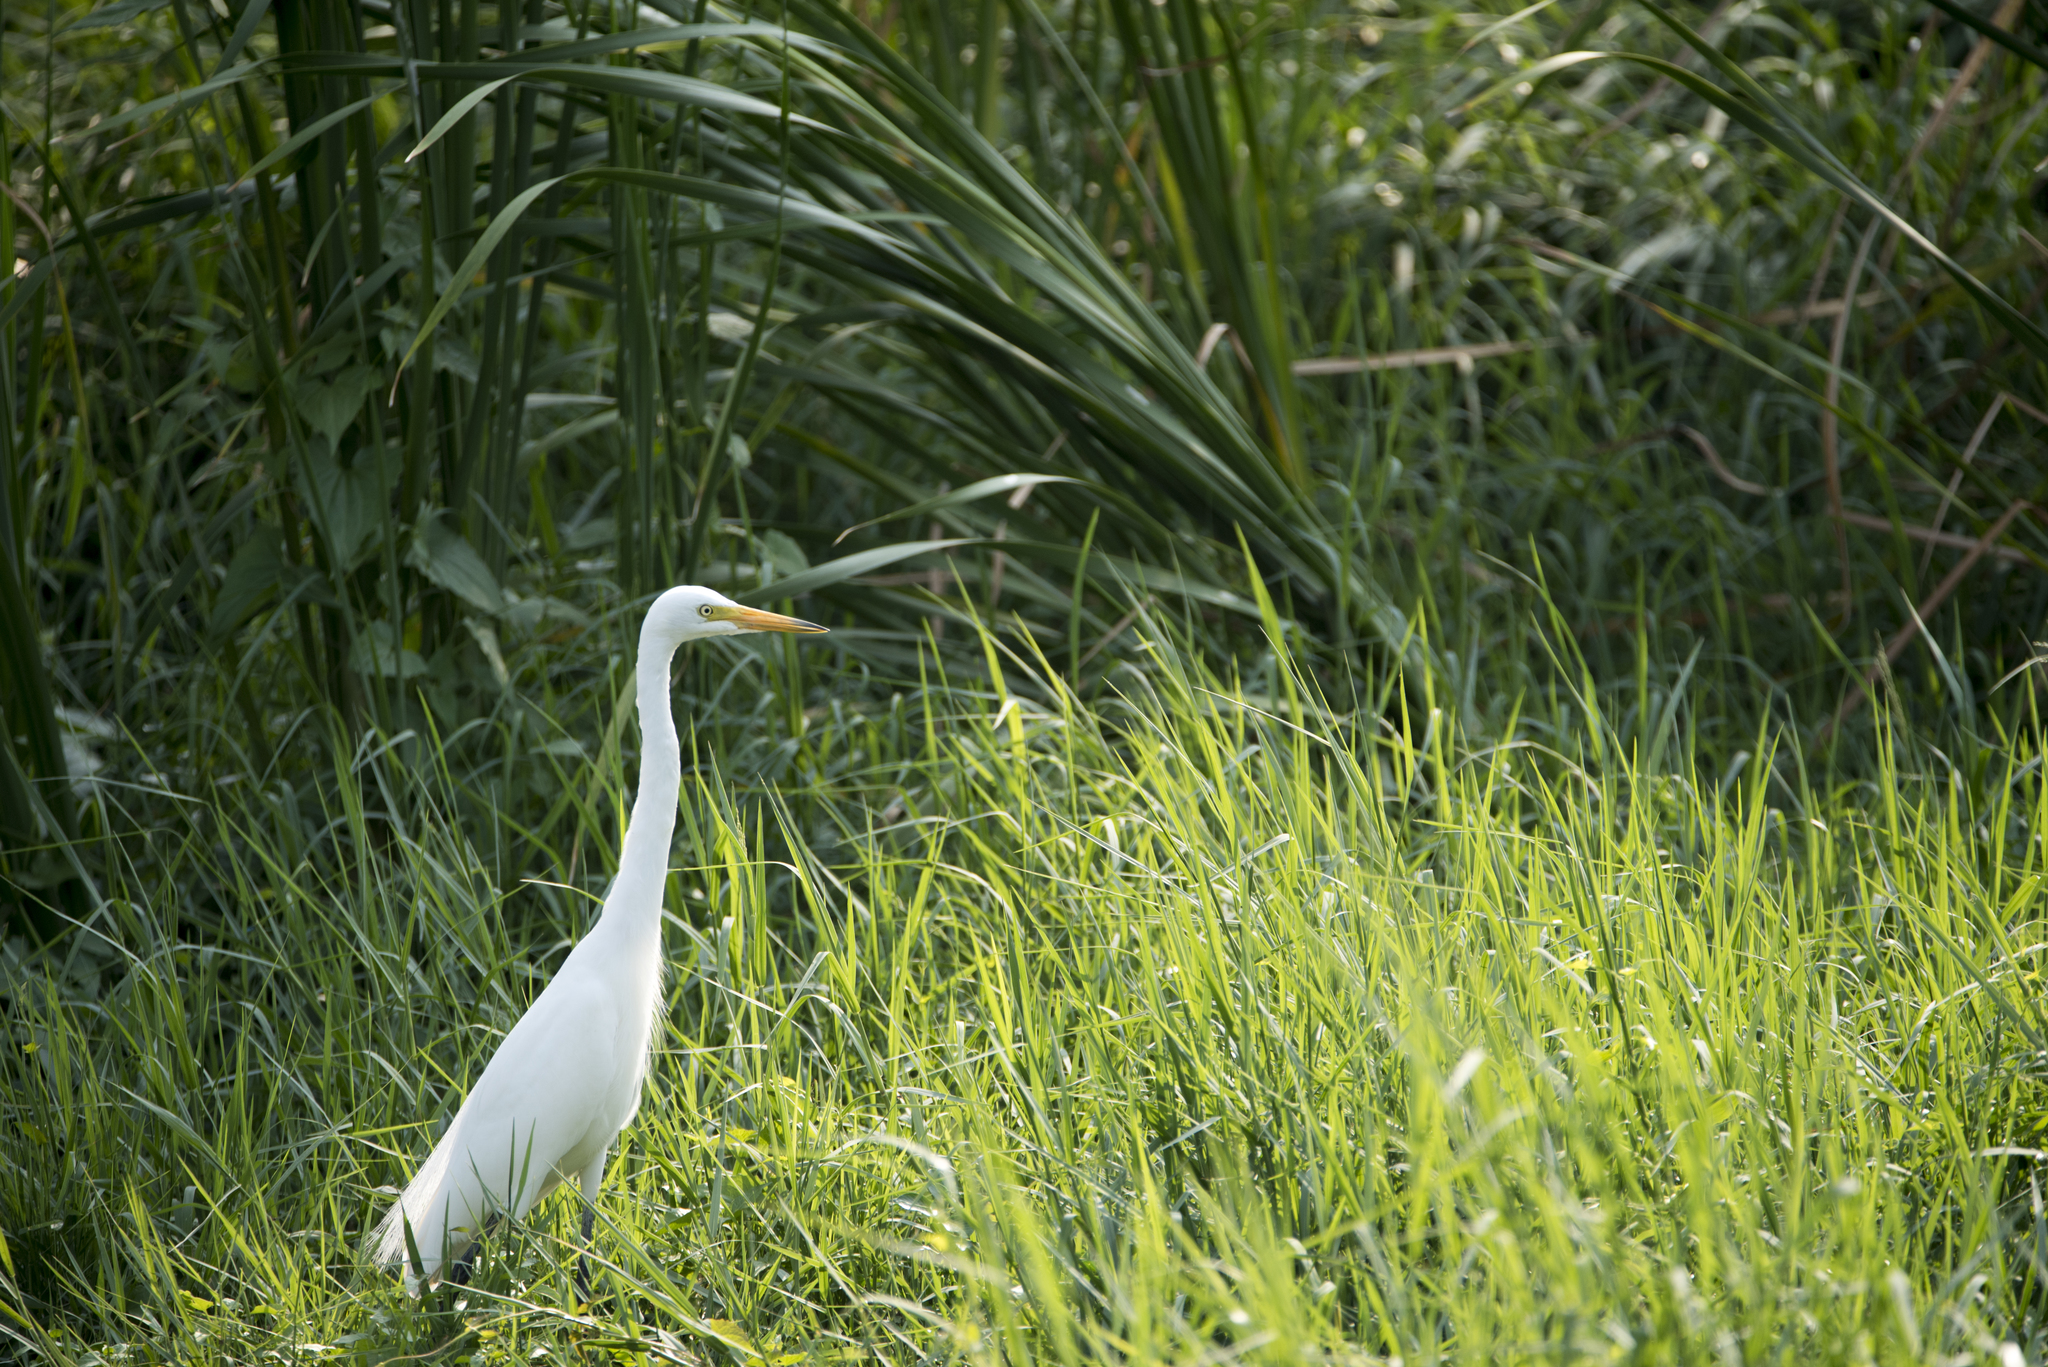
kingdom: Animalia
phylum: Chordata
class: Aves
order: Pelecaniformes
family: Ardeidae
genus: Egretta
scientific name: Egretta intermedia
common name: Intermediate egret
